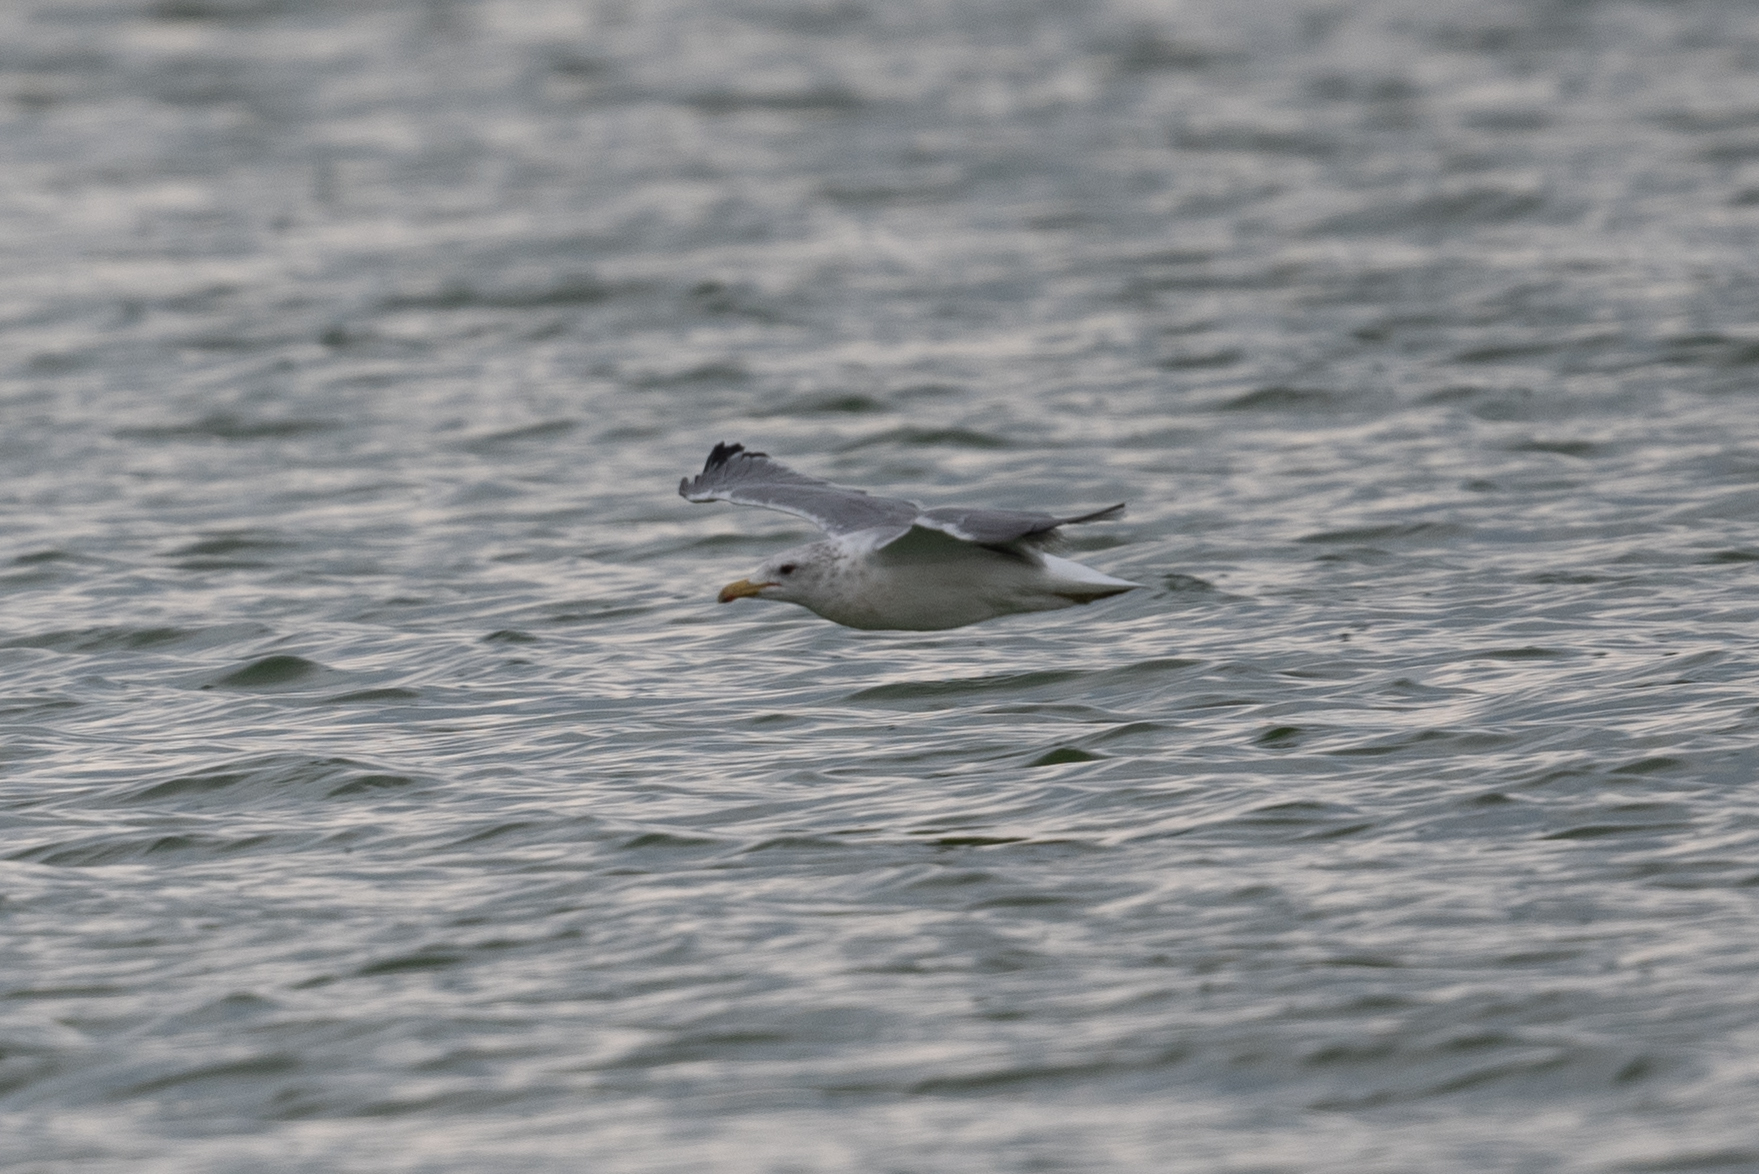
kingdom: Animalia
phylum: Chordata
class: Aves
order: Charadriiformes
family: Laridae
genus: Larus
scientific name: Larus californicus
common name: California gull
